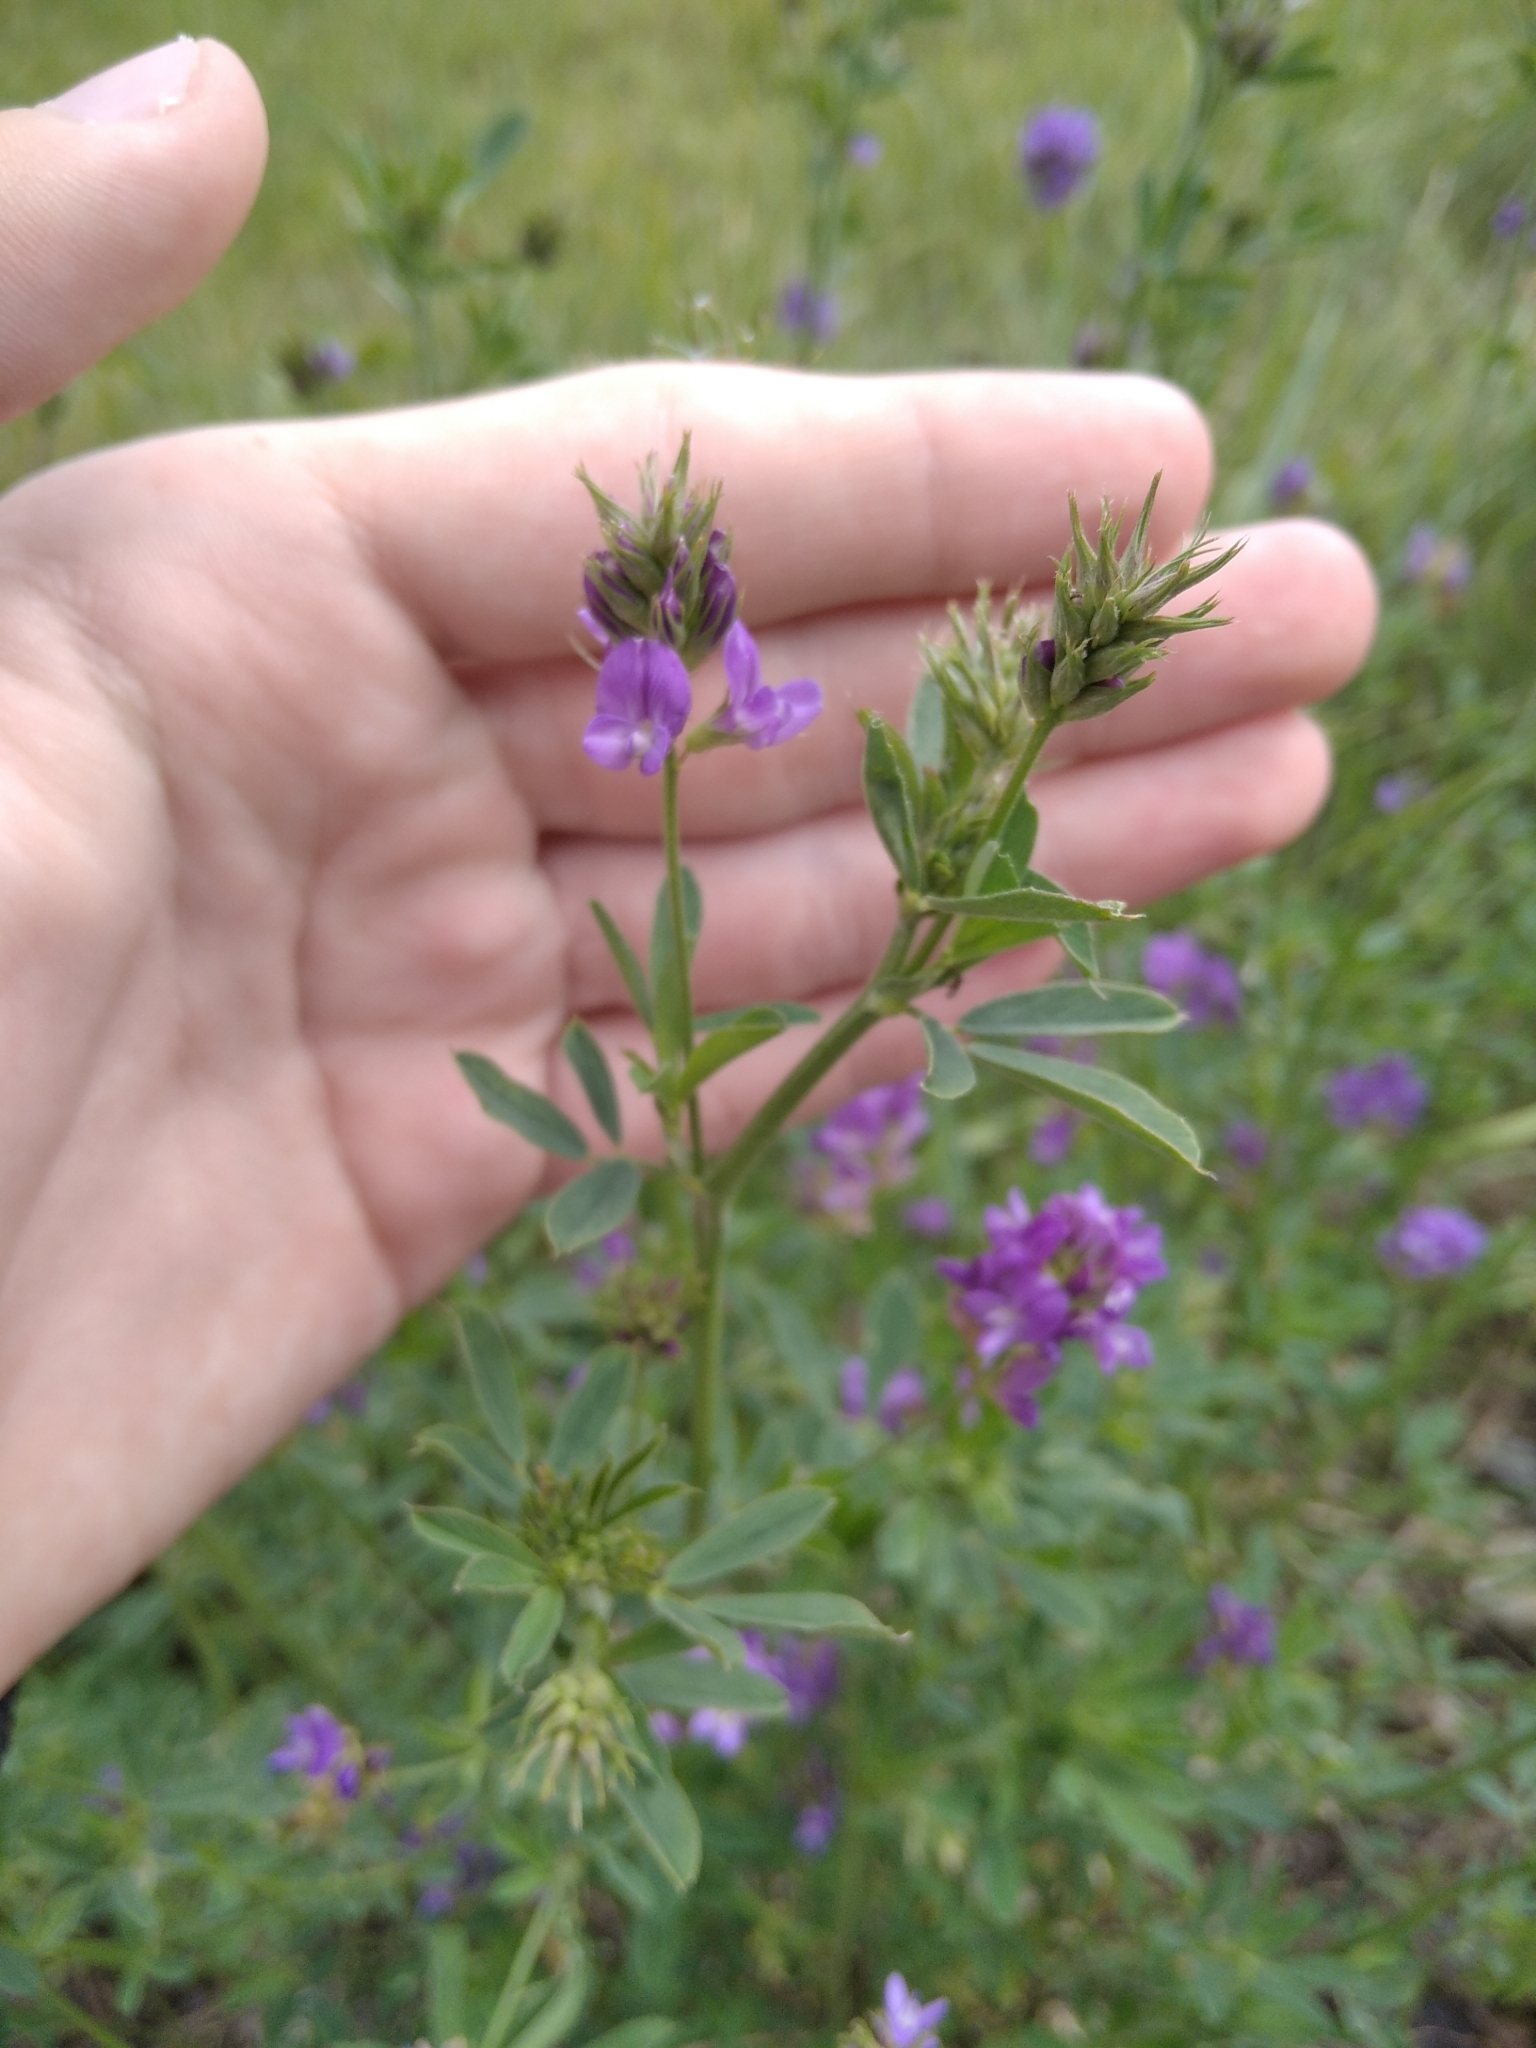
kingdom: Plantae
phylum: Tracheophyta
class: Magnoliopsida
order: Fabales
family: Fabaceae
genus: Medicago
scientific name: Medicago sativa
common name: Alfalfa
